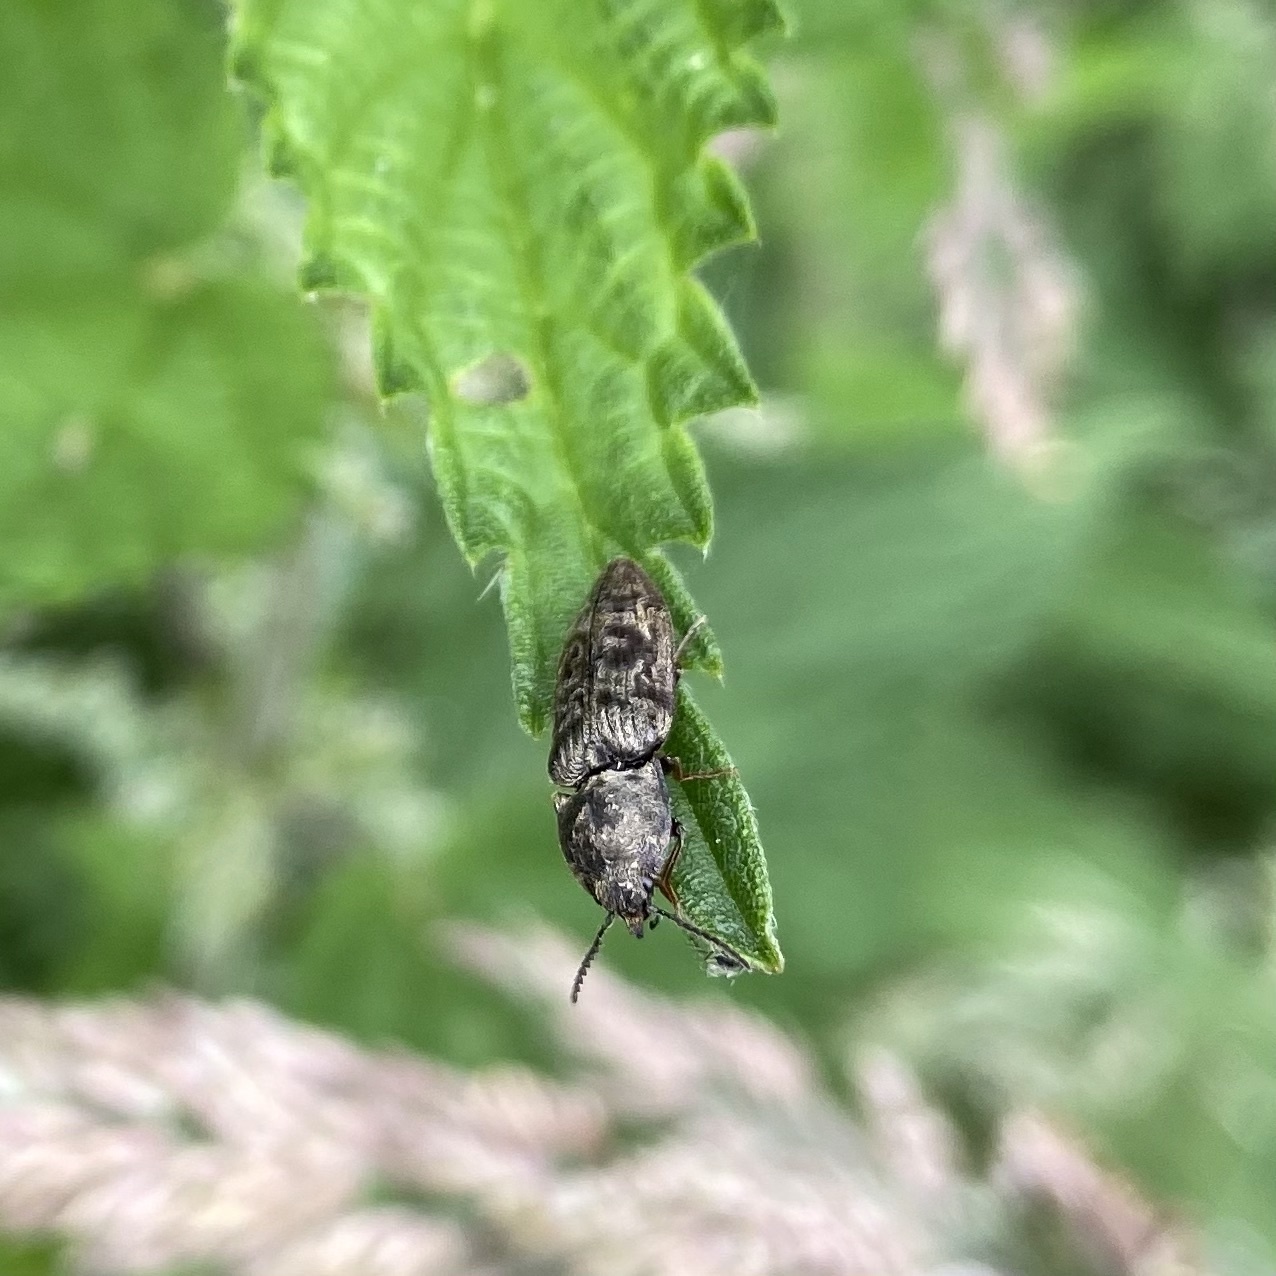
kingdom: Animalia
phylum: Arthropoda
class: Insecta
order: Coleoptera
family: Elateridae
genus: Prosternon
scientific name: Prosternon tessellatum
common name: Chequered click beetle
